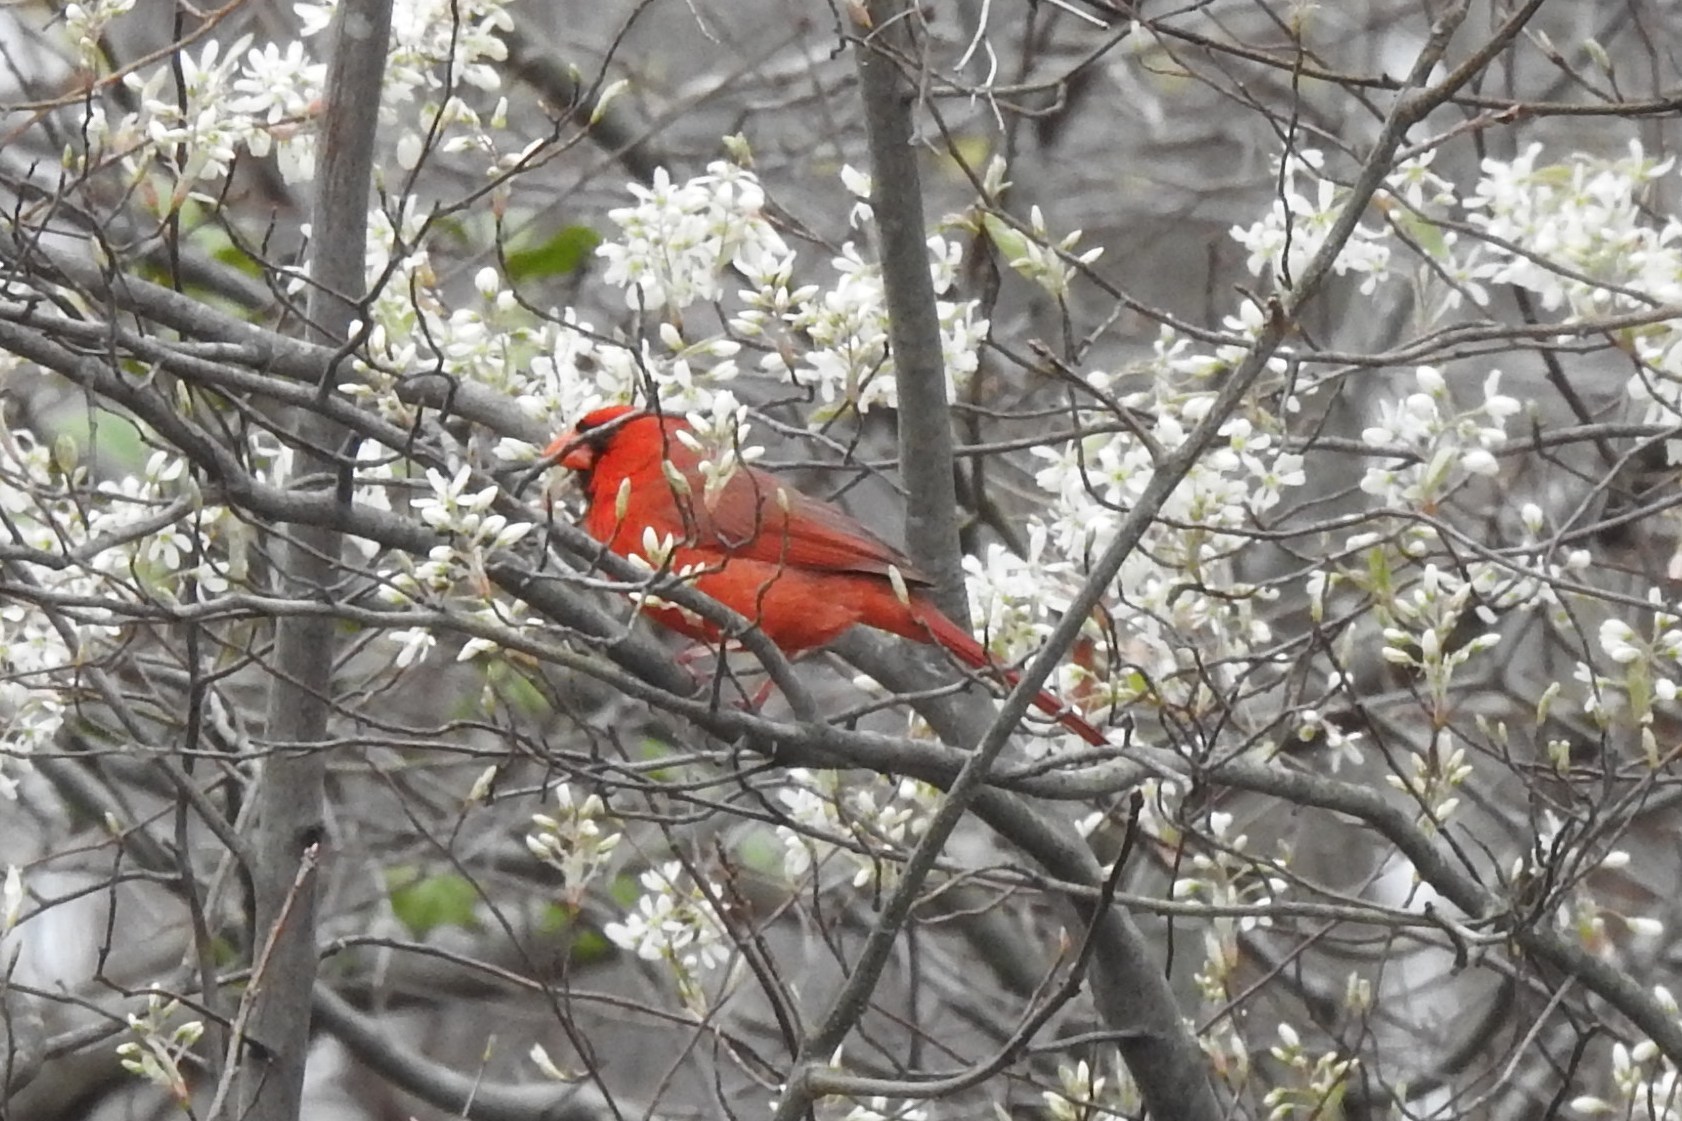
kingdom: Animalia
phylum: Chordata
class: Aves
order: Passeriformes
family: Cardinalidae
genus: Cardinalis
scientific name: Cardinalis cardinalis
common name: Northern cardinal
